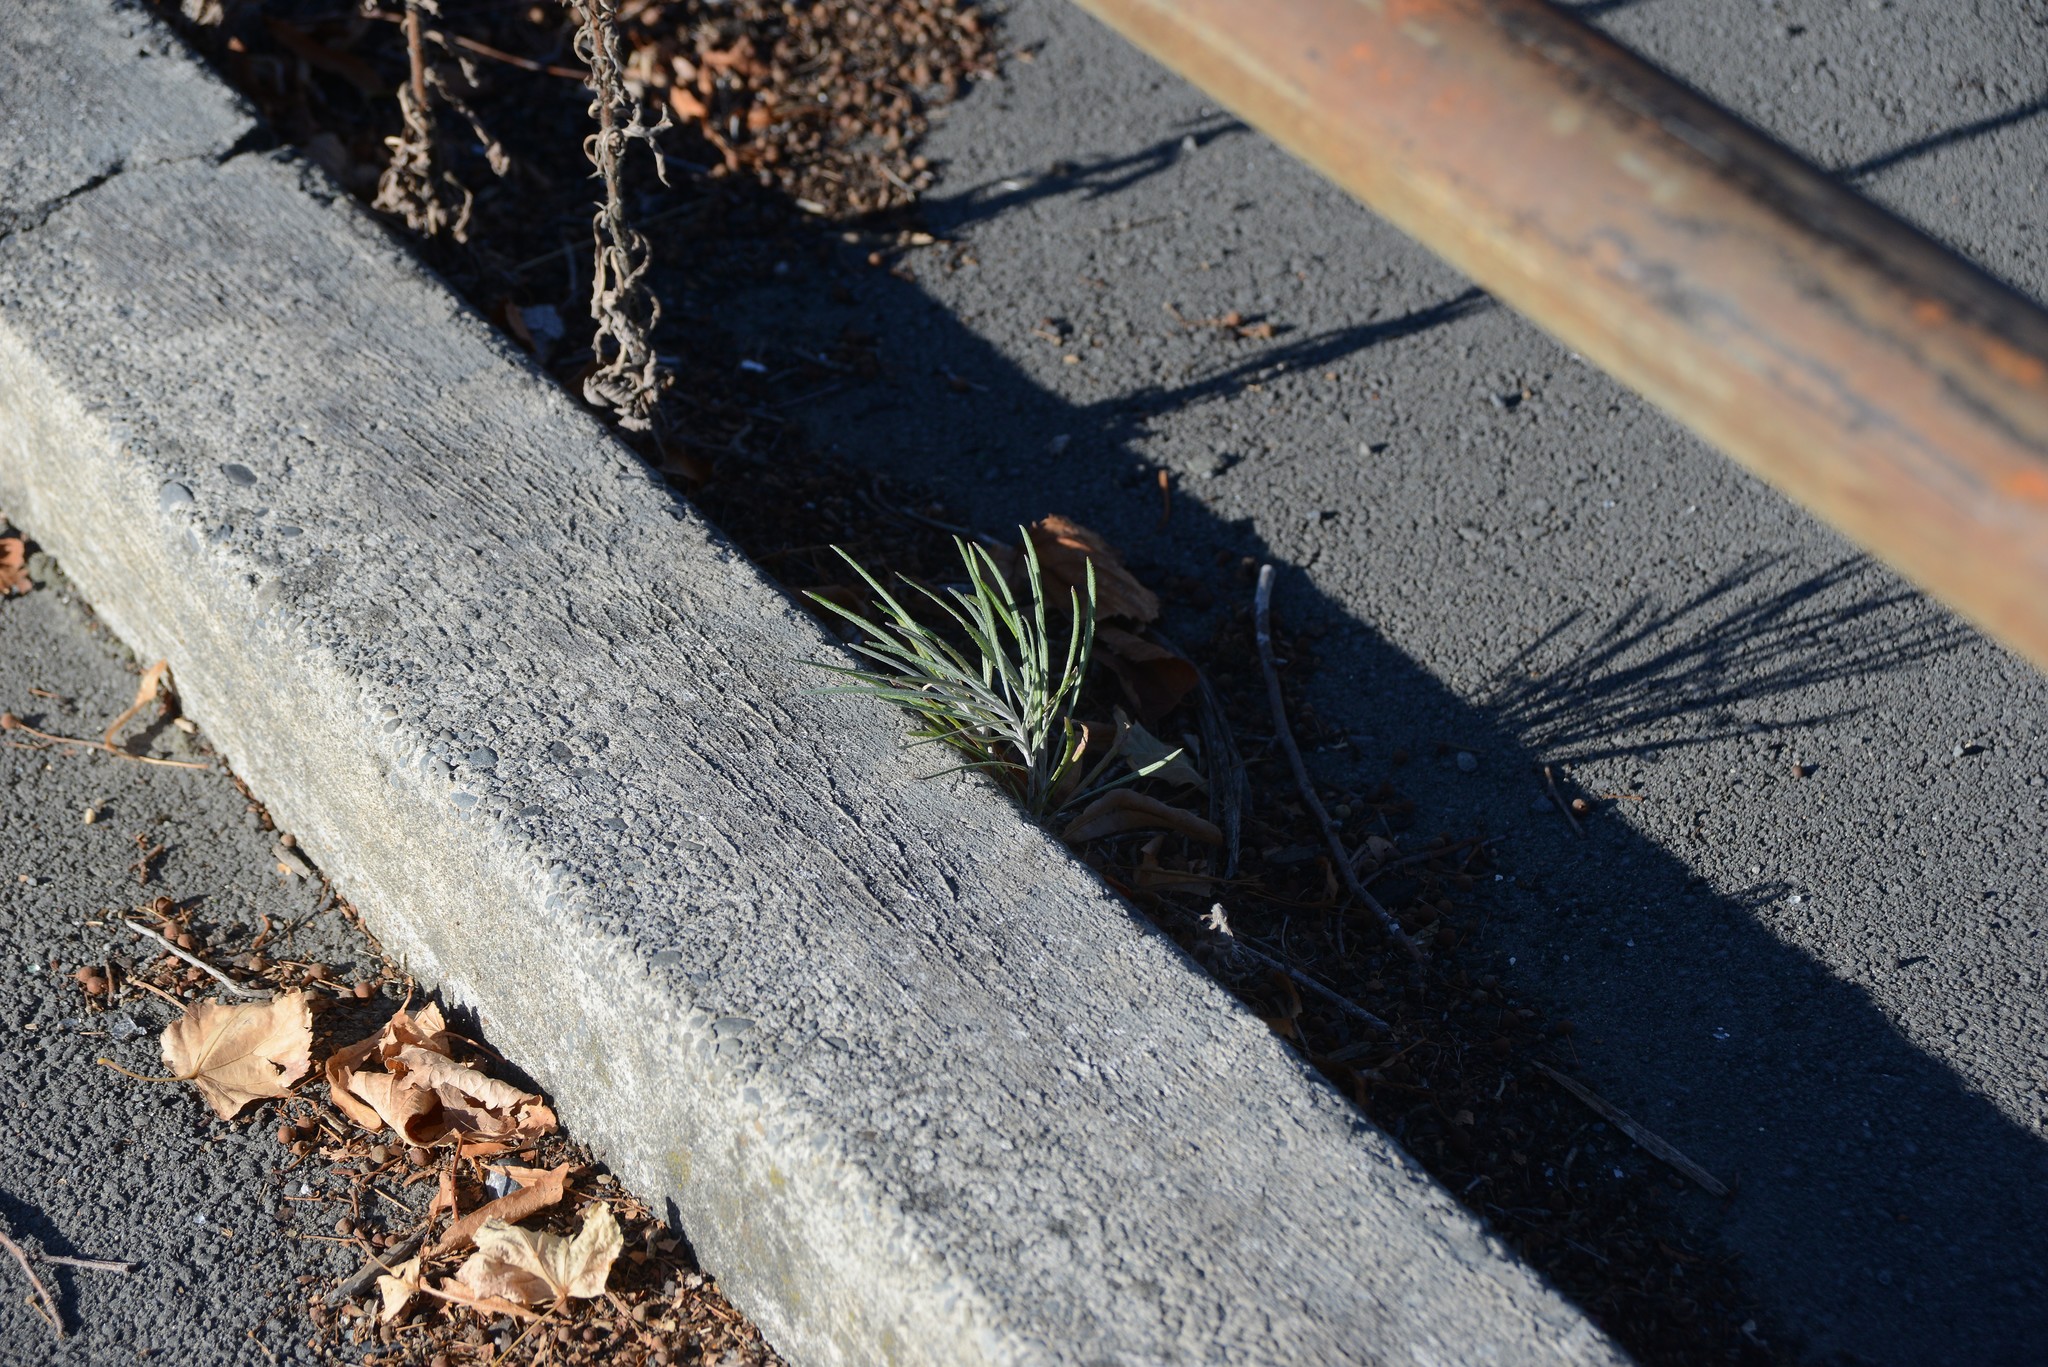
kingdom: Plantae
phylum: Tracheophyta
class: Magnoliopsida
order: Asterales
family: Asteraceae
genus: Senecio
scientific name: Senecio quadridentatus
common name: Cotton fireweed
